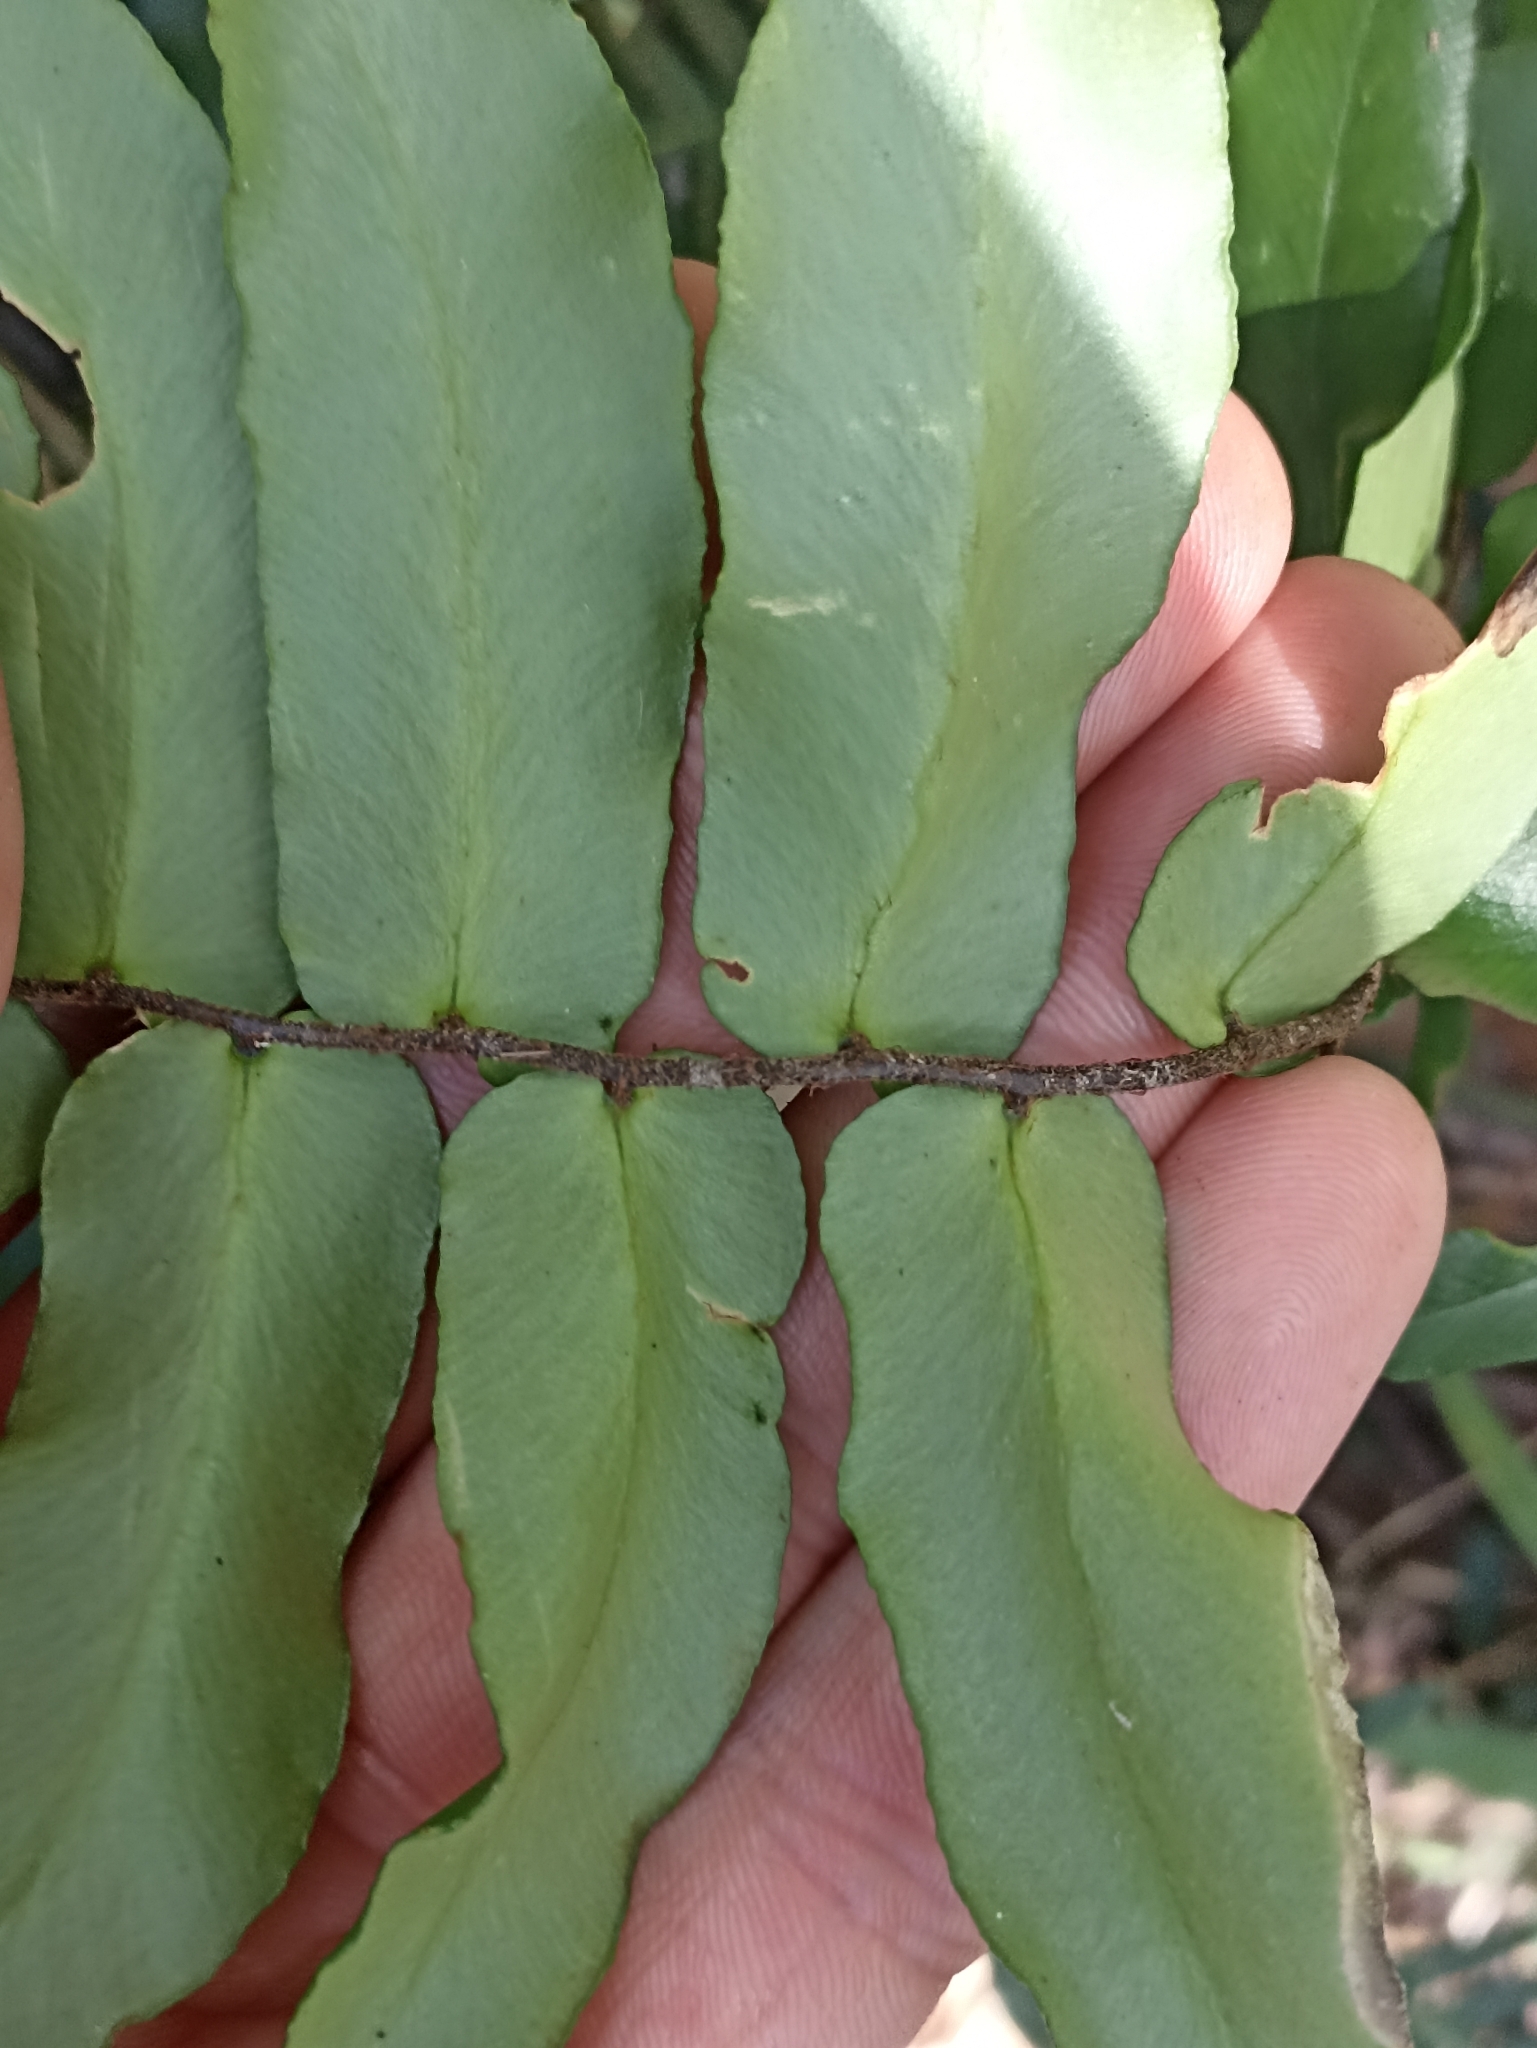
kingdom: Plantae
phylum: Tracheophyta
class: Polypodiopsida
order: Polypodiales
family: Pteridaceae
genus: Pellaea
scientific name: Pellaea paradoxa
